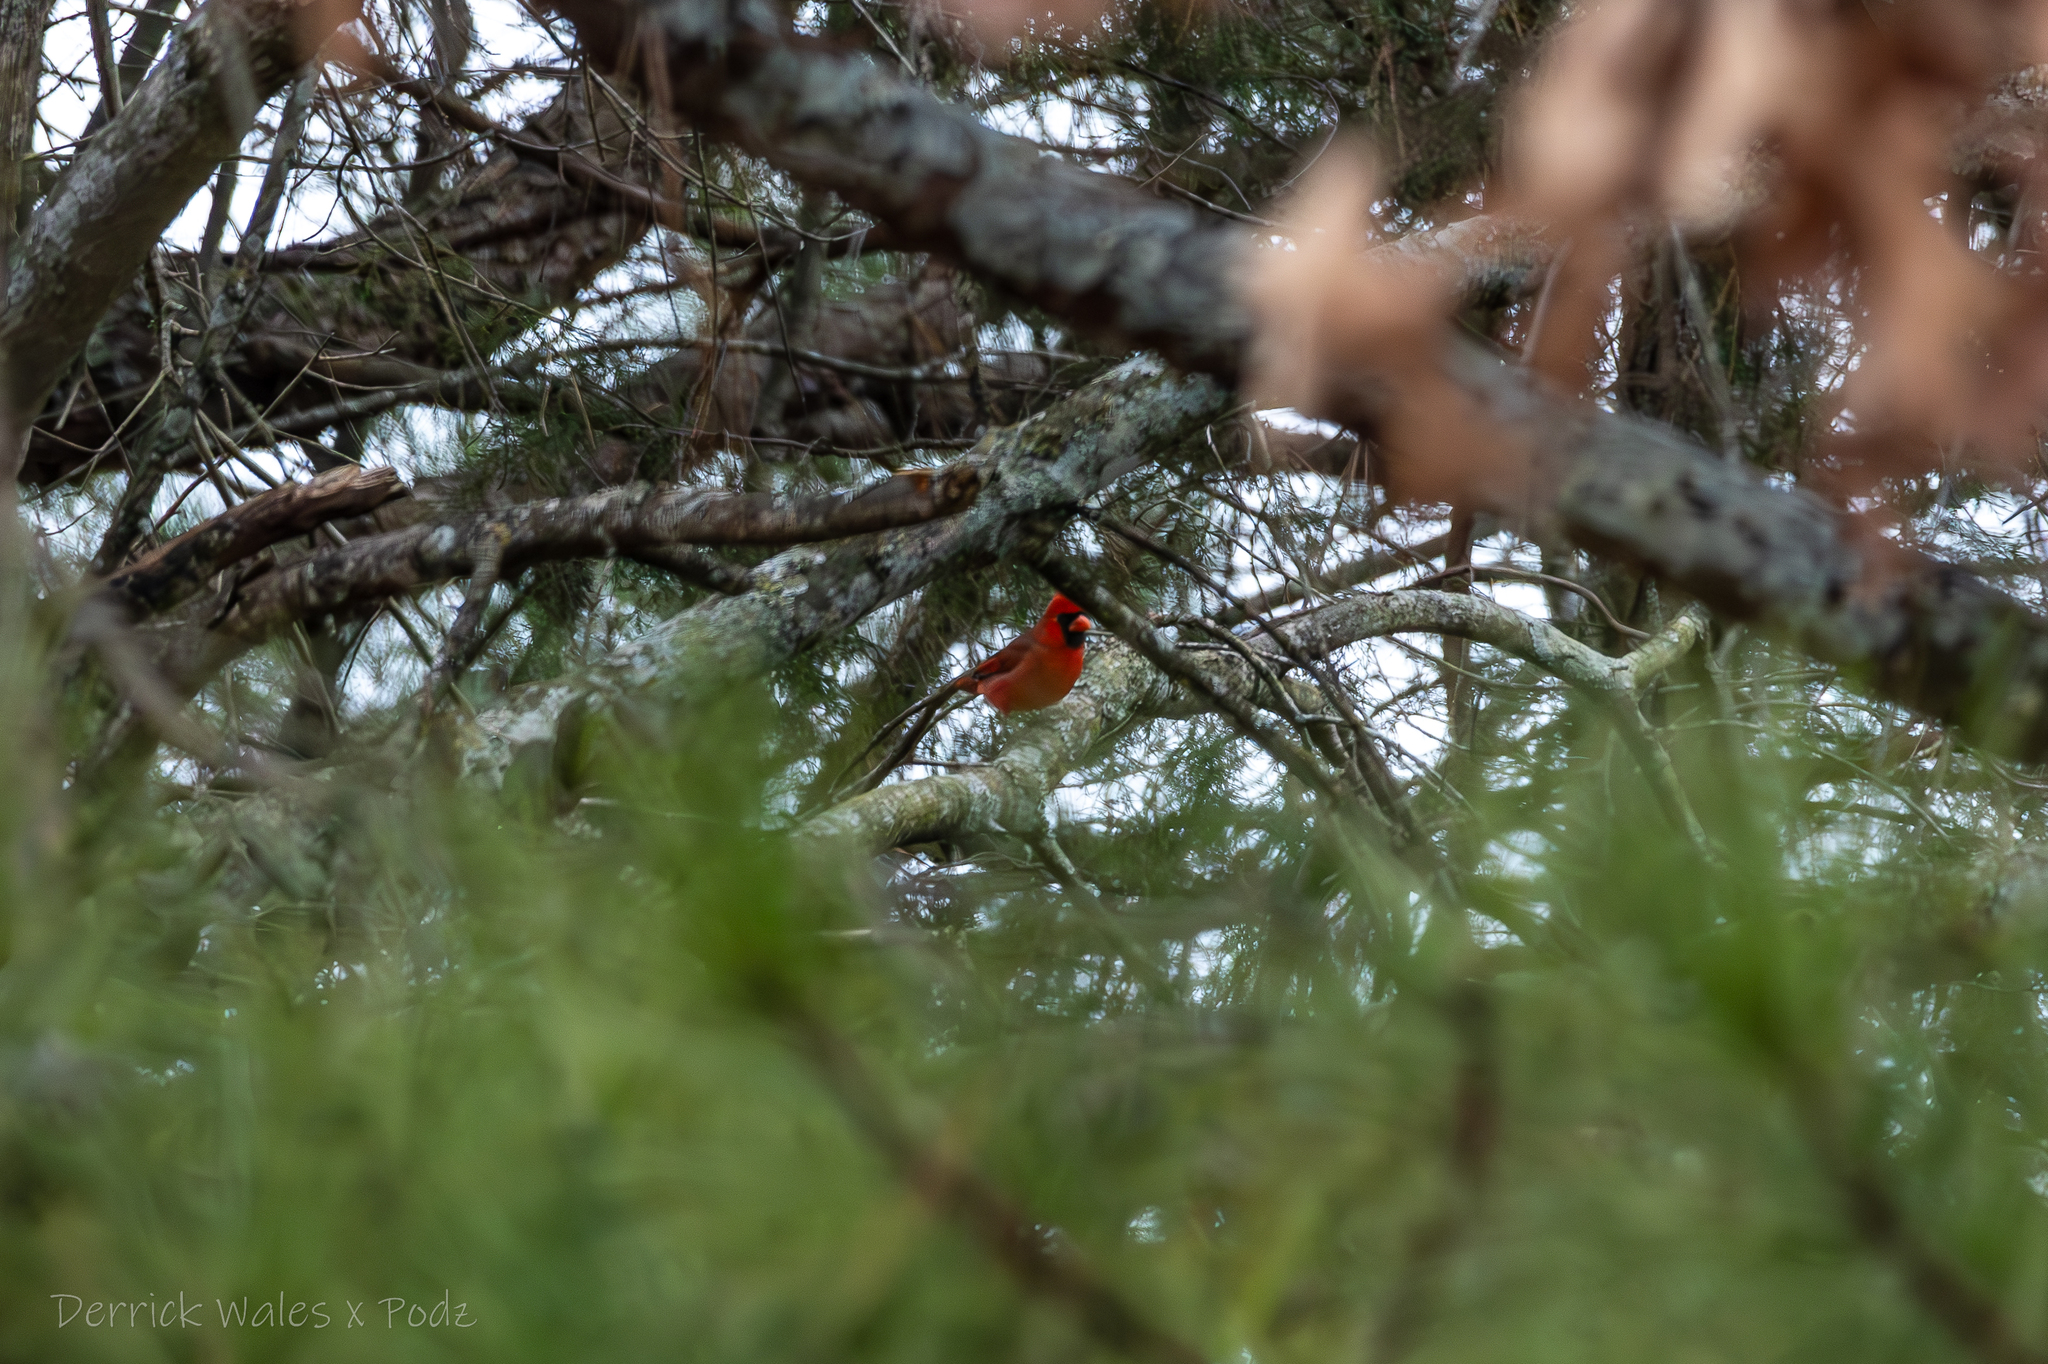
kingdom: Animalia
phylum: Chordata
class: Aves
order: Passeriformes
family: Cardinalidae
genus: Cardinalis
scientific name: Cardinalis cardinalis
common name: Northern cardinal
